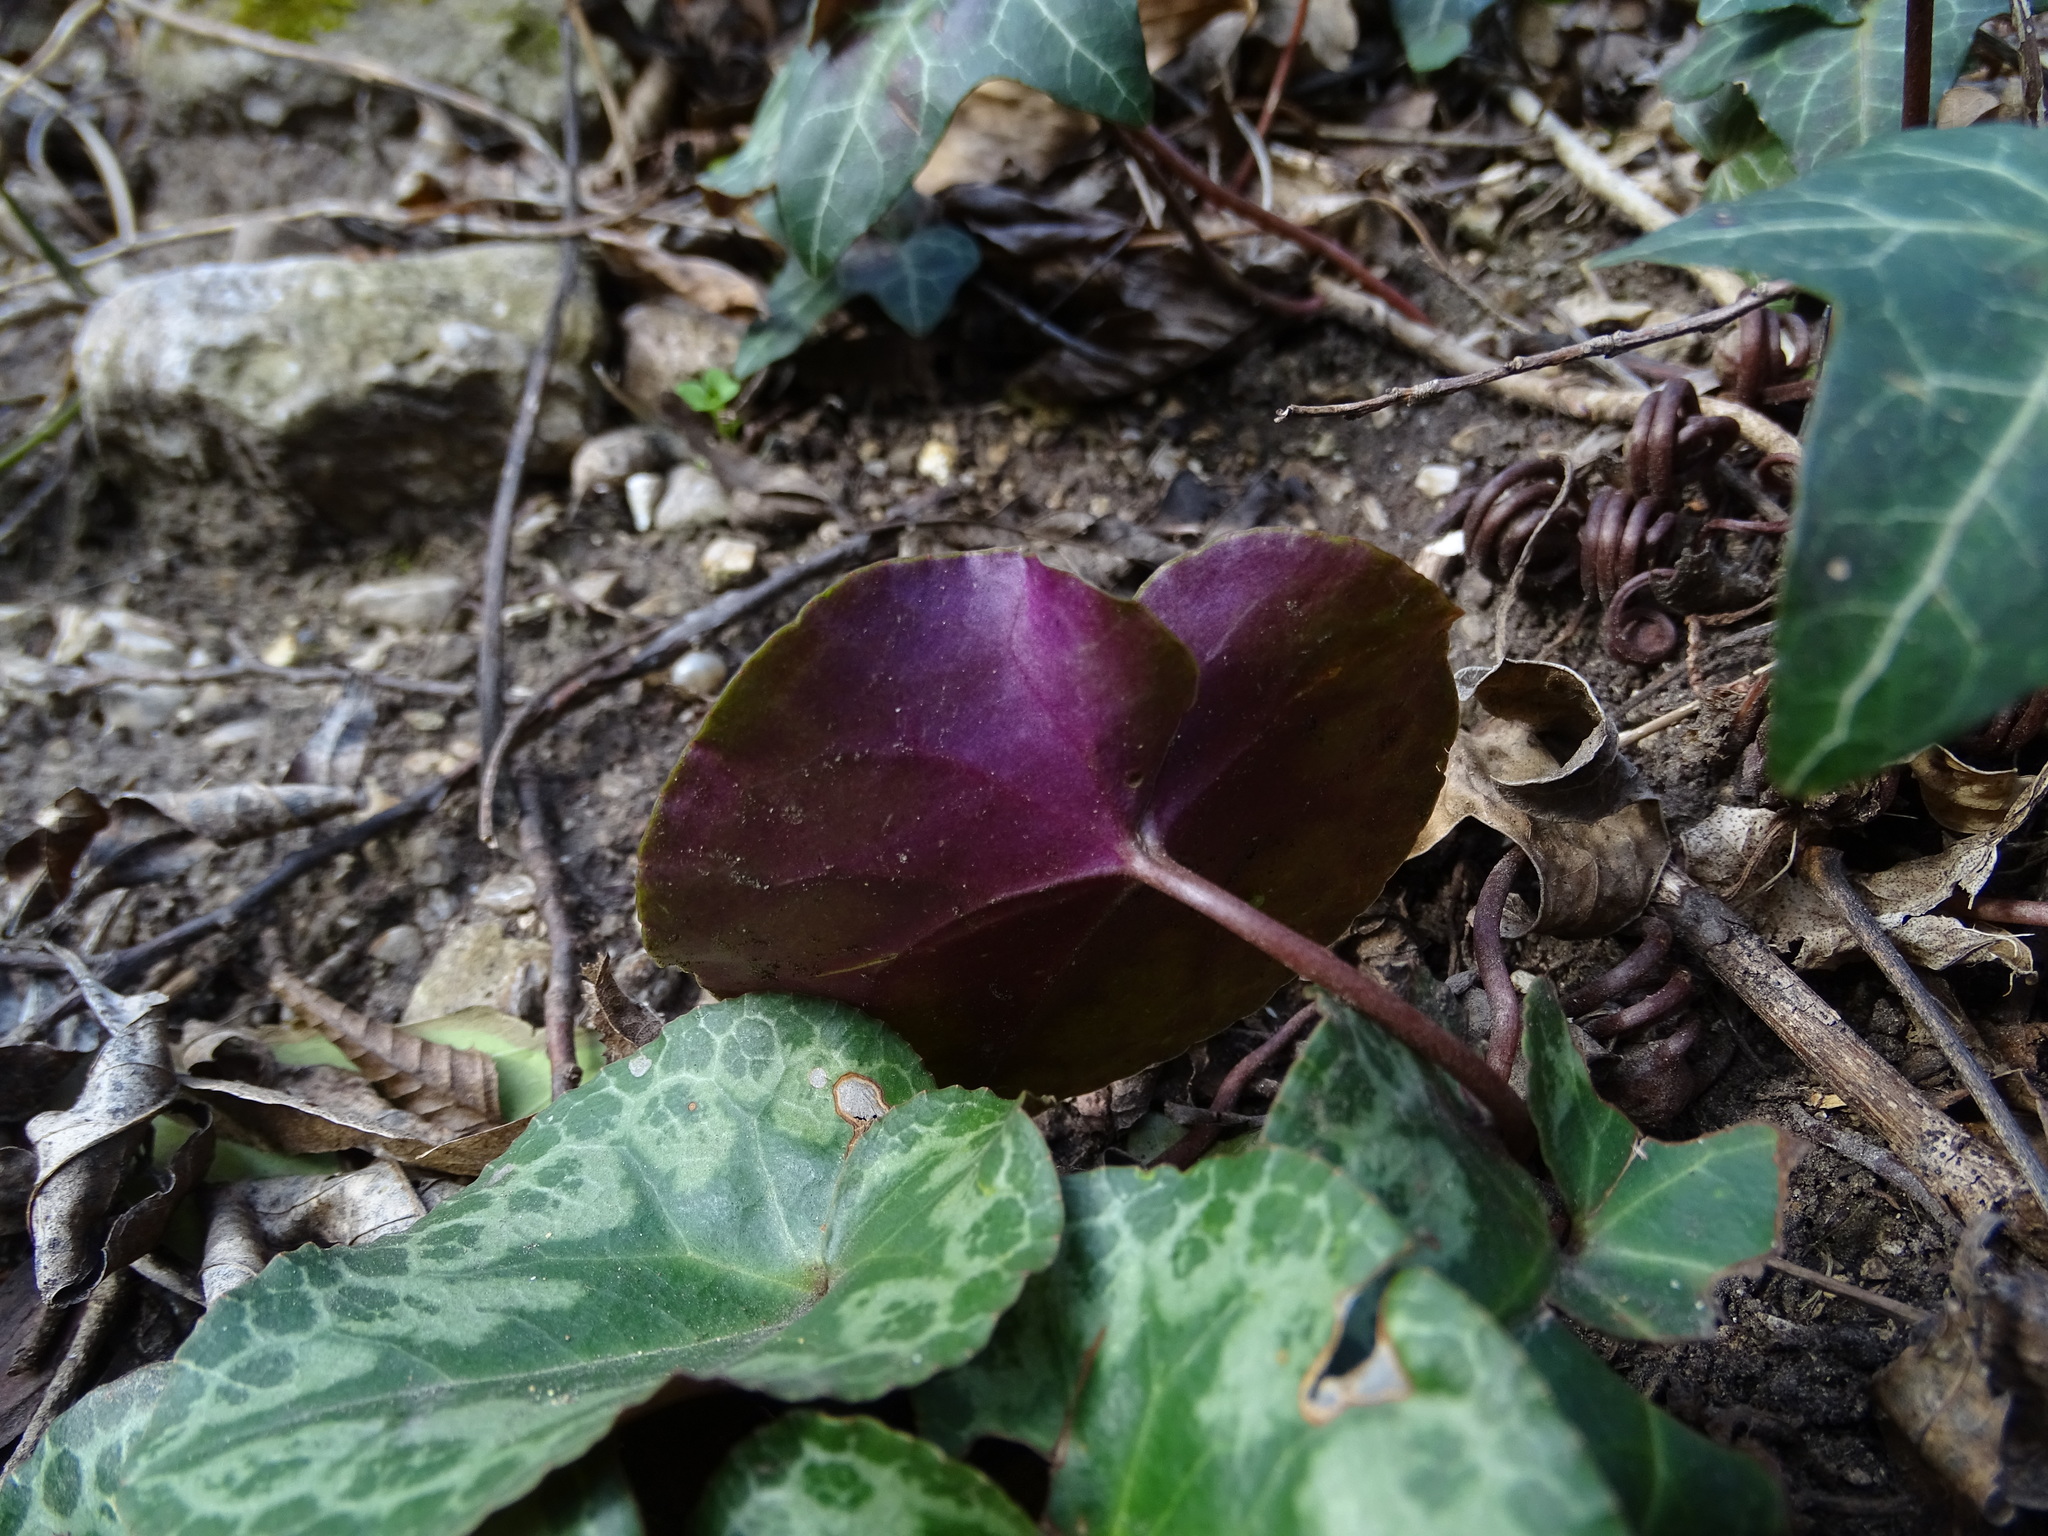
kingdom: Plantae
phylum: Tracheophyta
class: Magnoliopsida
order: Ericales
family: Primulaceae
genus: Cyclamen
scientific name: Cyclamen purpurascens
